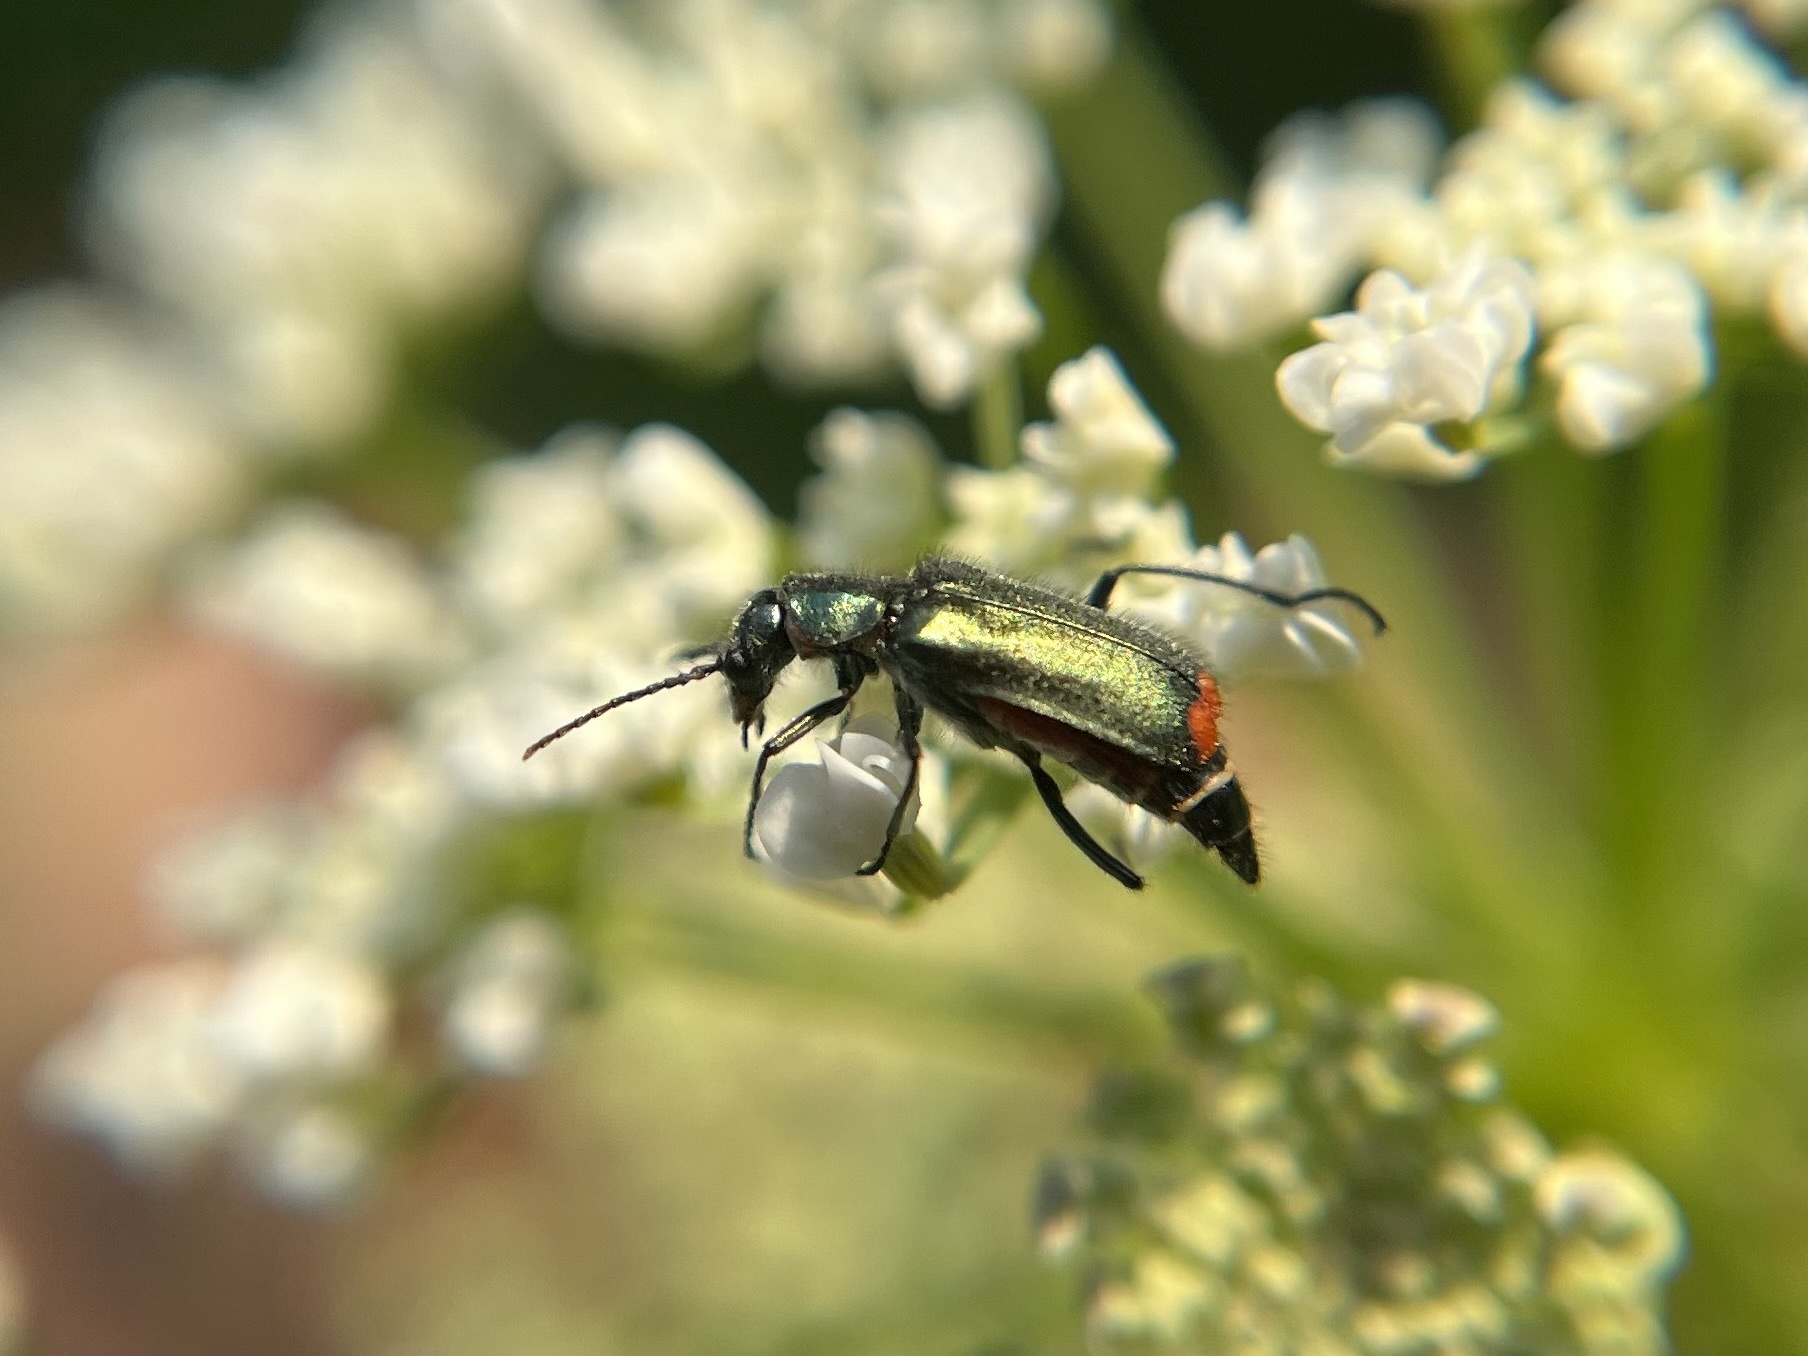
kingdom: Animalia
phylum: Arthropoda
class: Insecta
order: Coleoptera
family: Melyridae
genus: Malachius
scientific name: Malachius bipustulatus
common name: Malachite beetle
